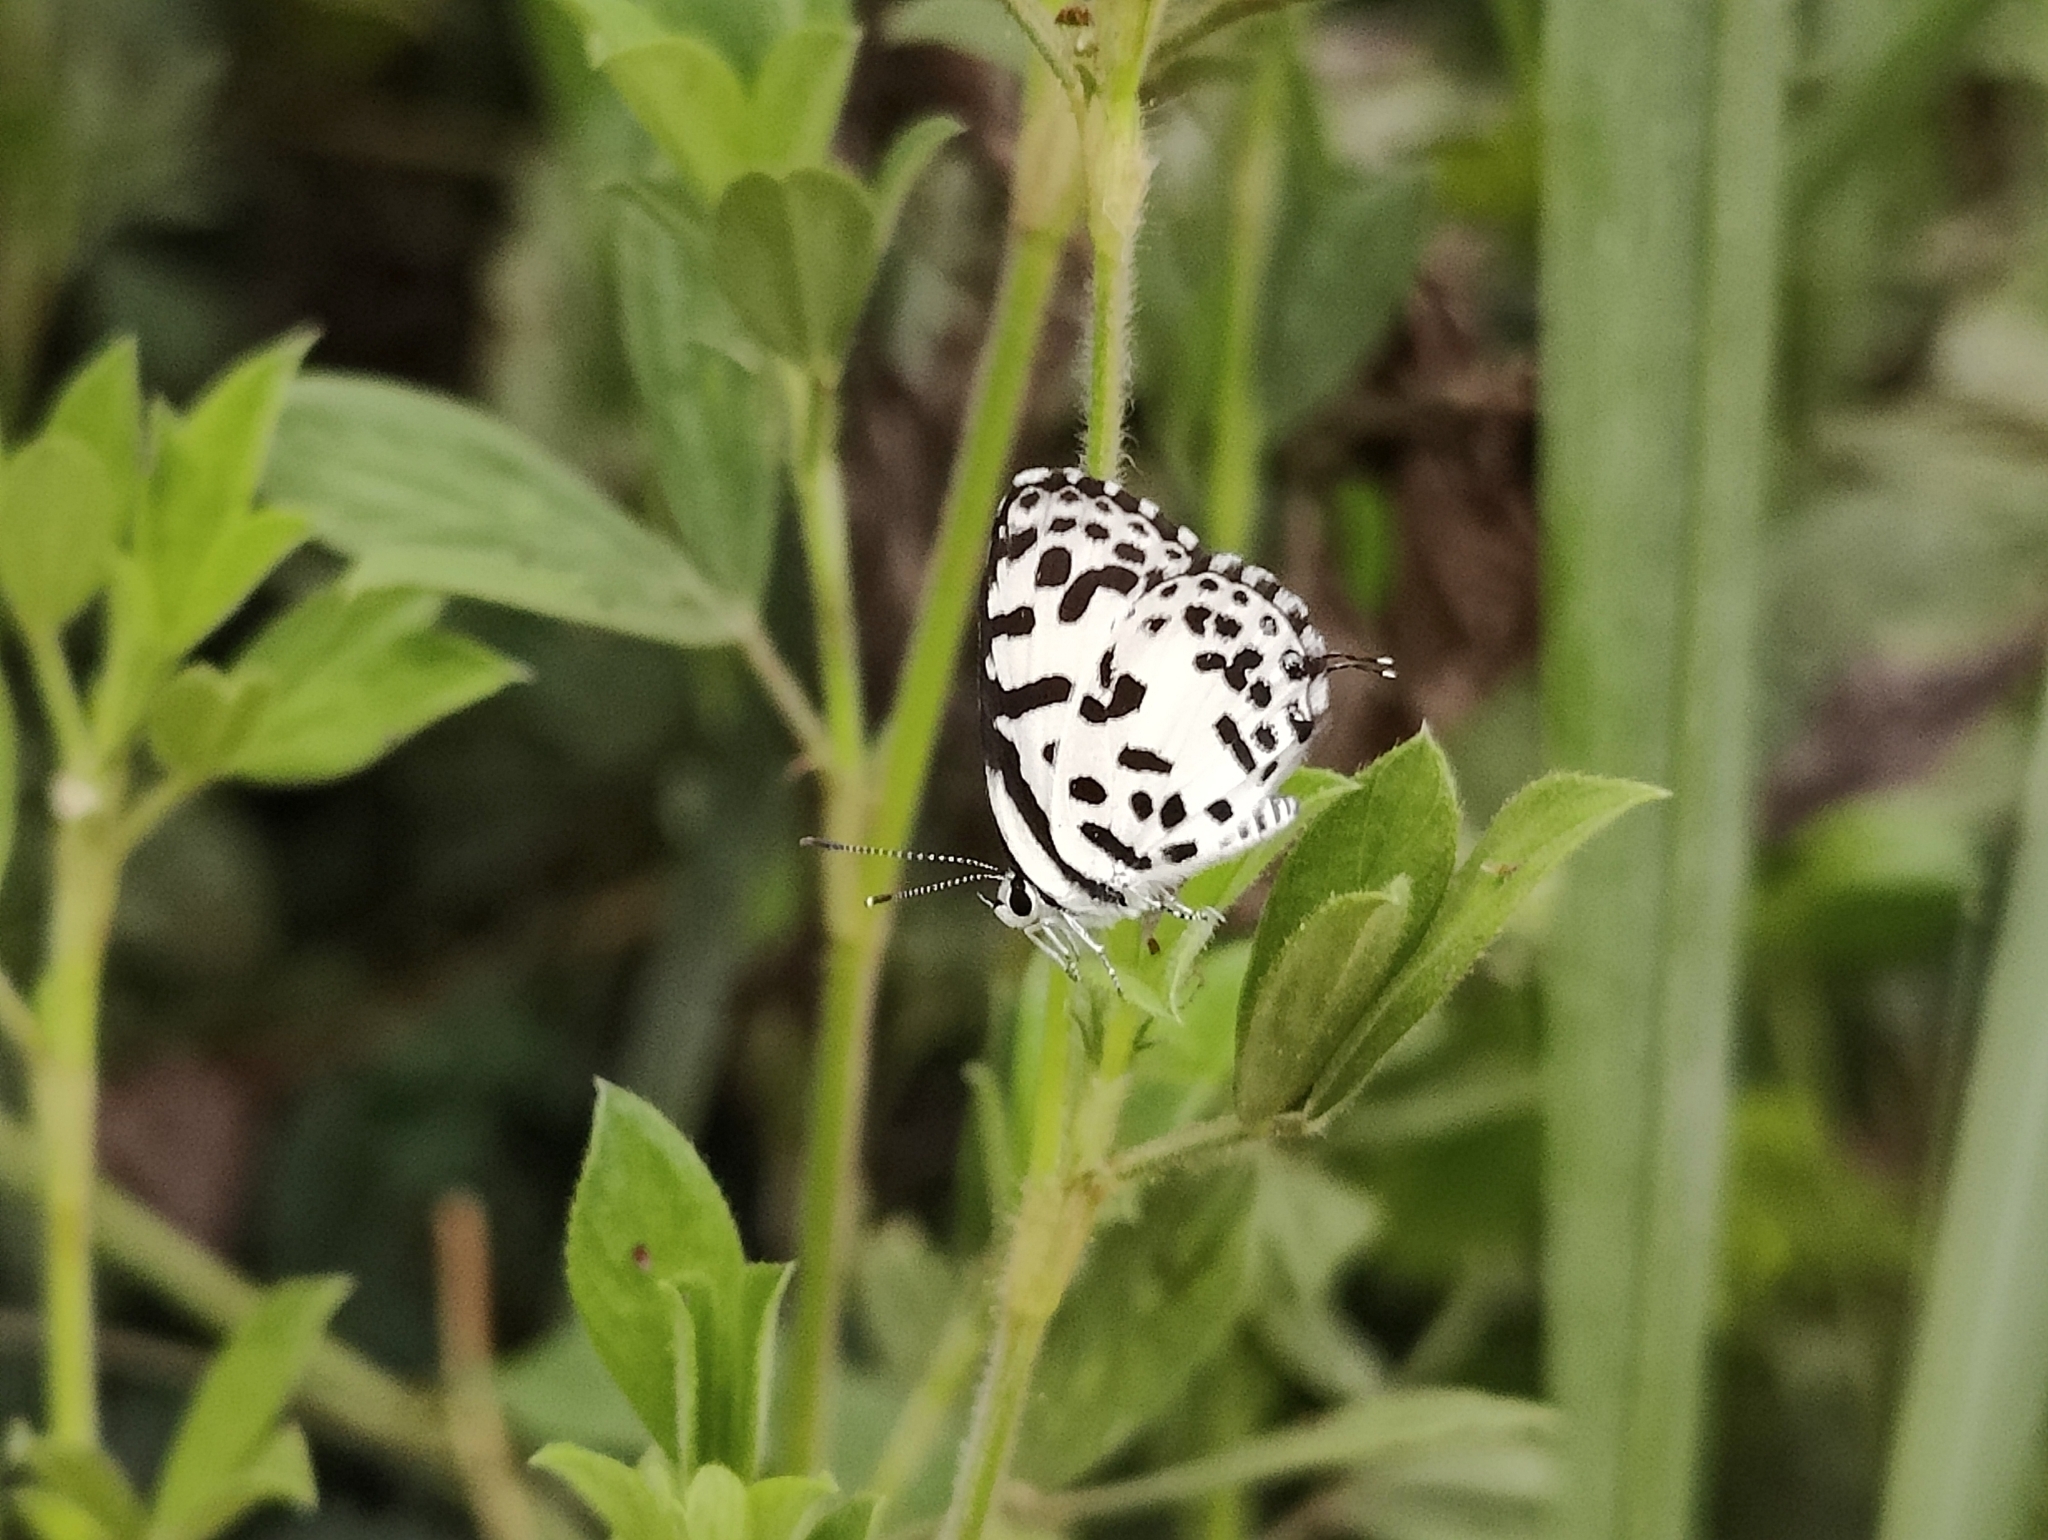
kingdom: Animalia
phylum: Arthropoda
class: Insecta
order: Lepidoptera
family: Lycaenidae
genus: Castalius
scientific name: Castalius rosimon
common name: Common pierrot
